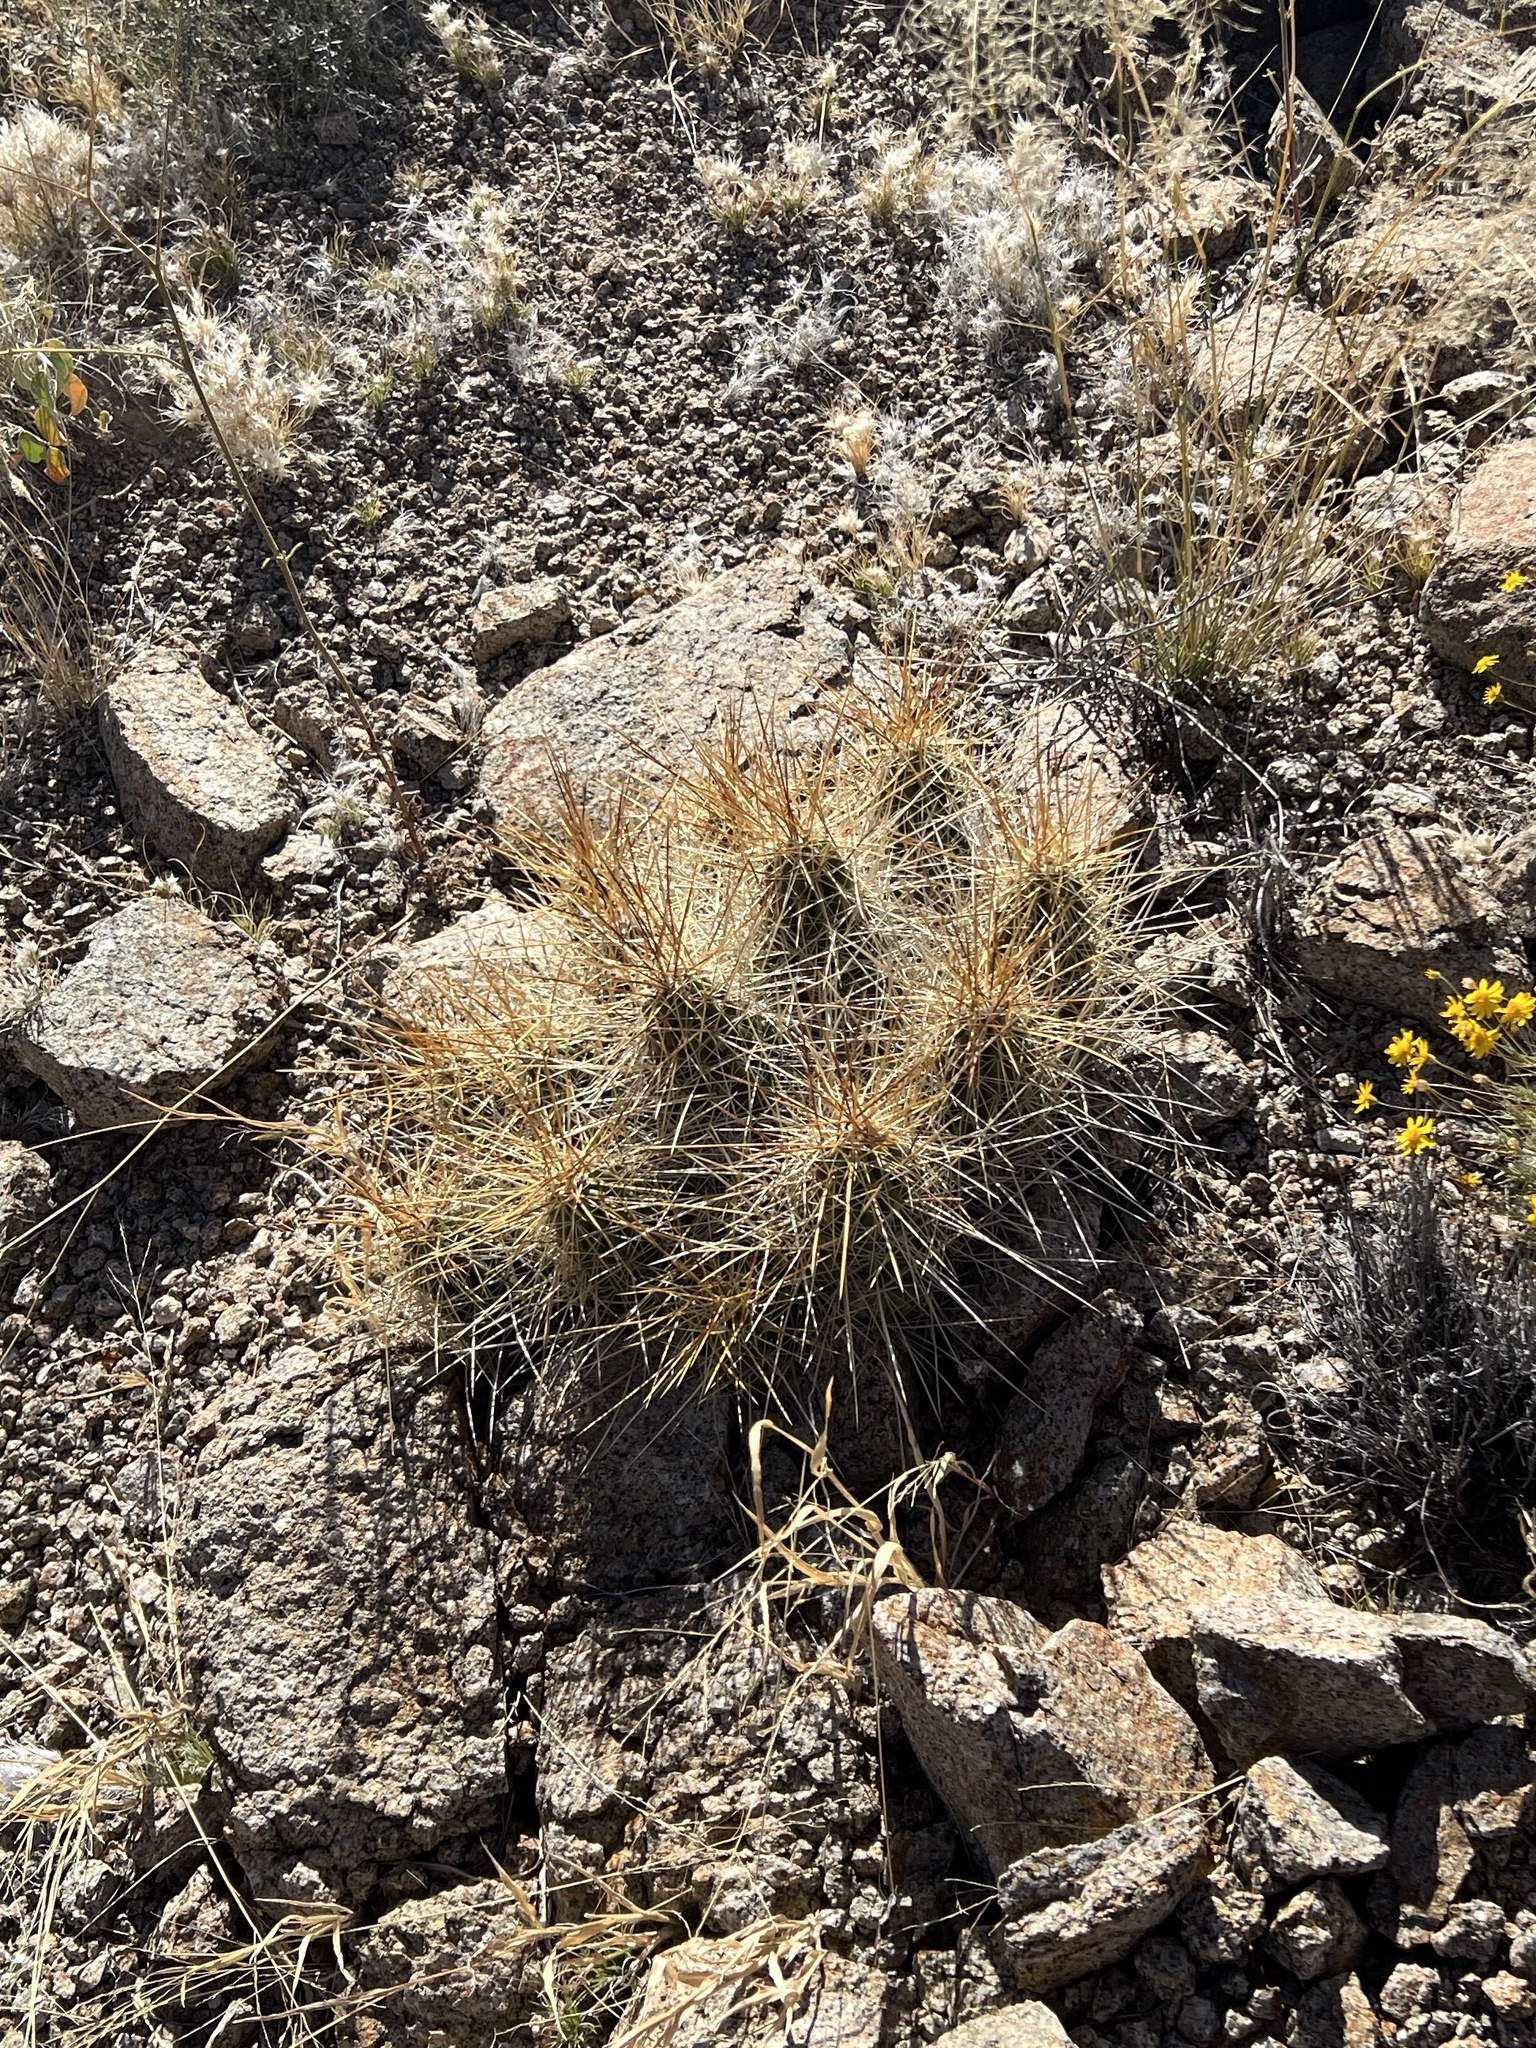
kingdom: Plantae
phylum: Tracheophyta
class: Magnoliopsida
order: Caryophyllales
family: Cactaceae
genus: Echinocereus
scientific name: Echinocereus stramineus
